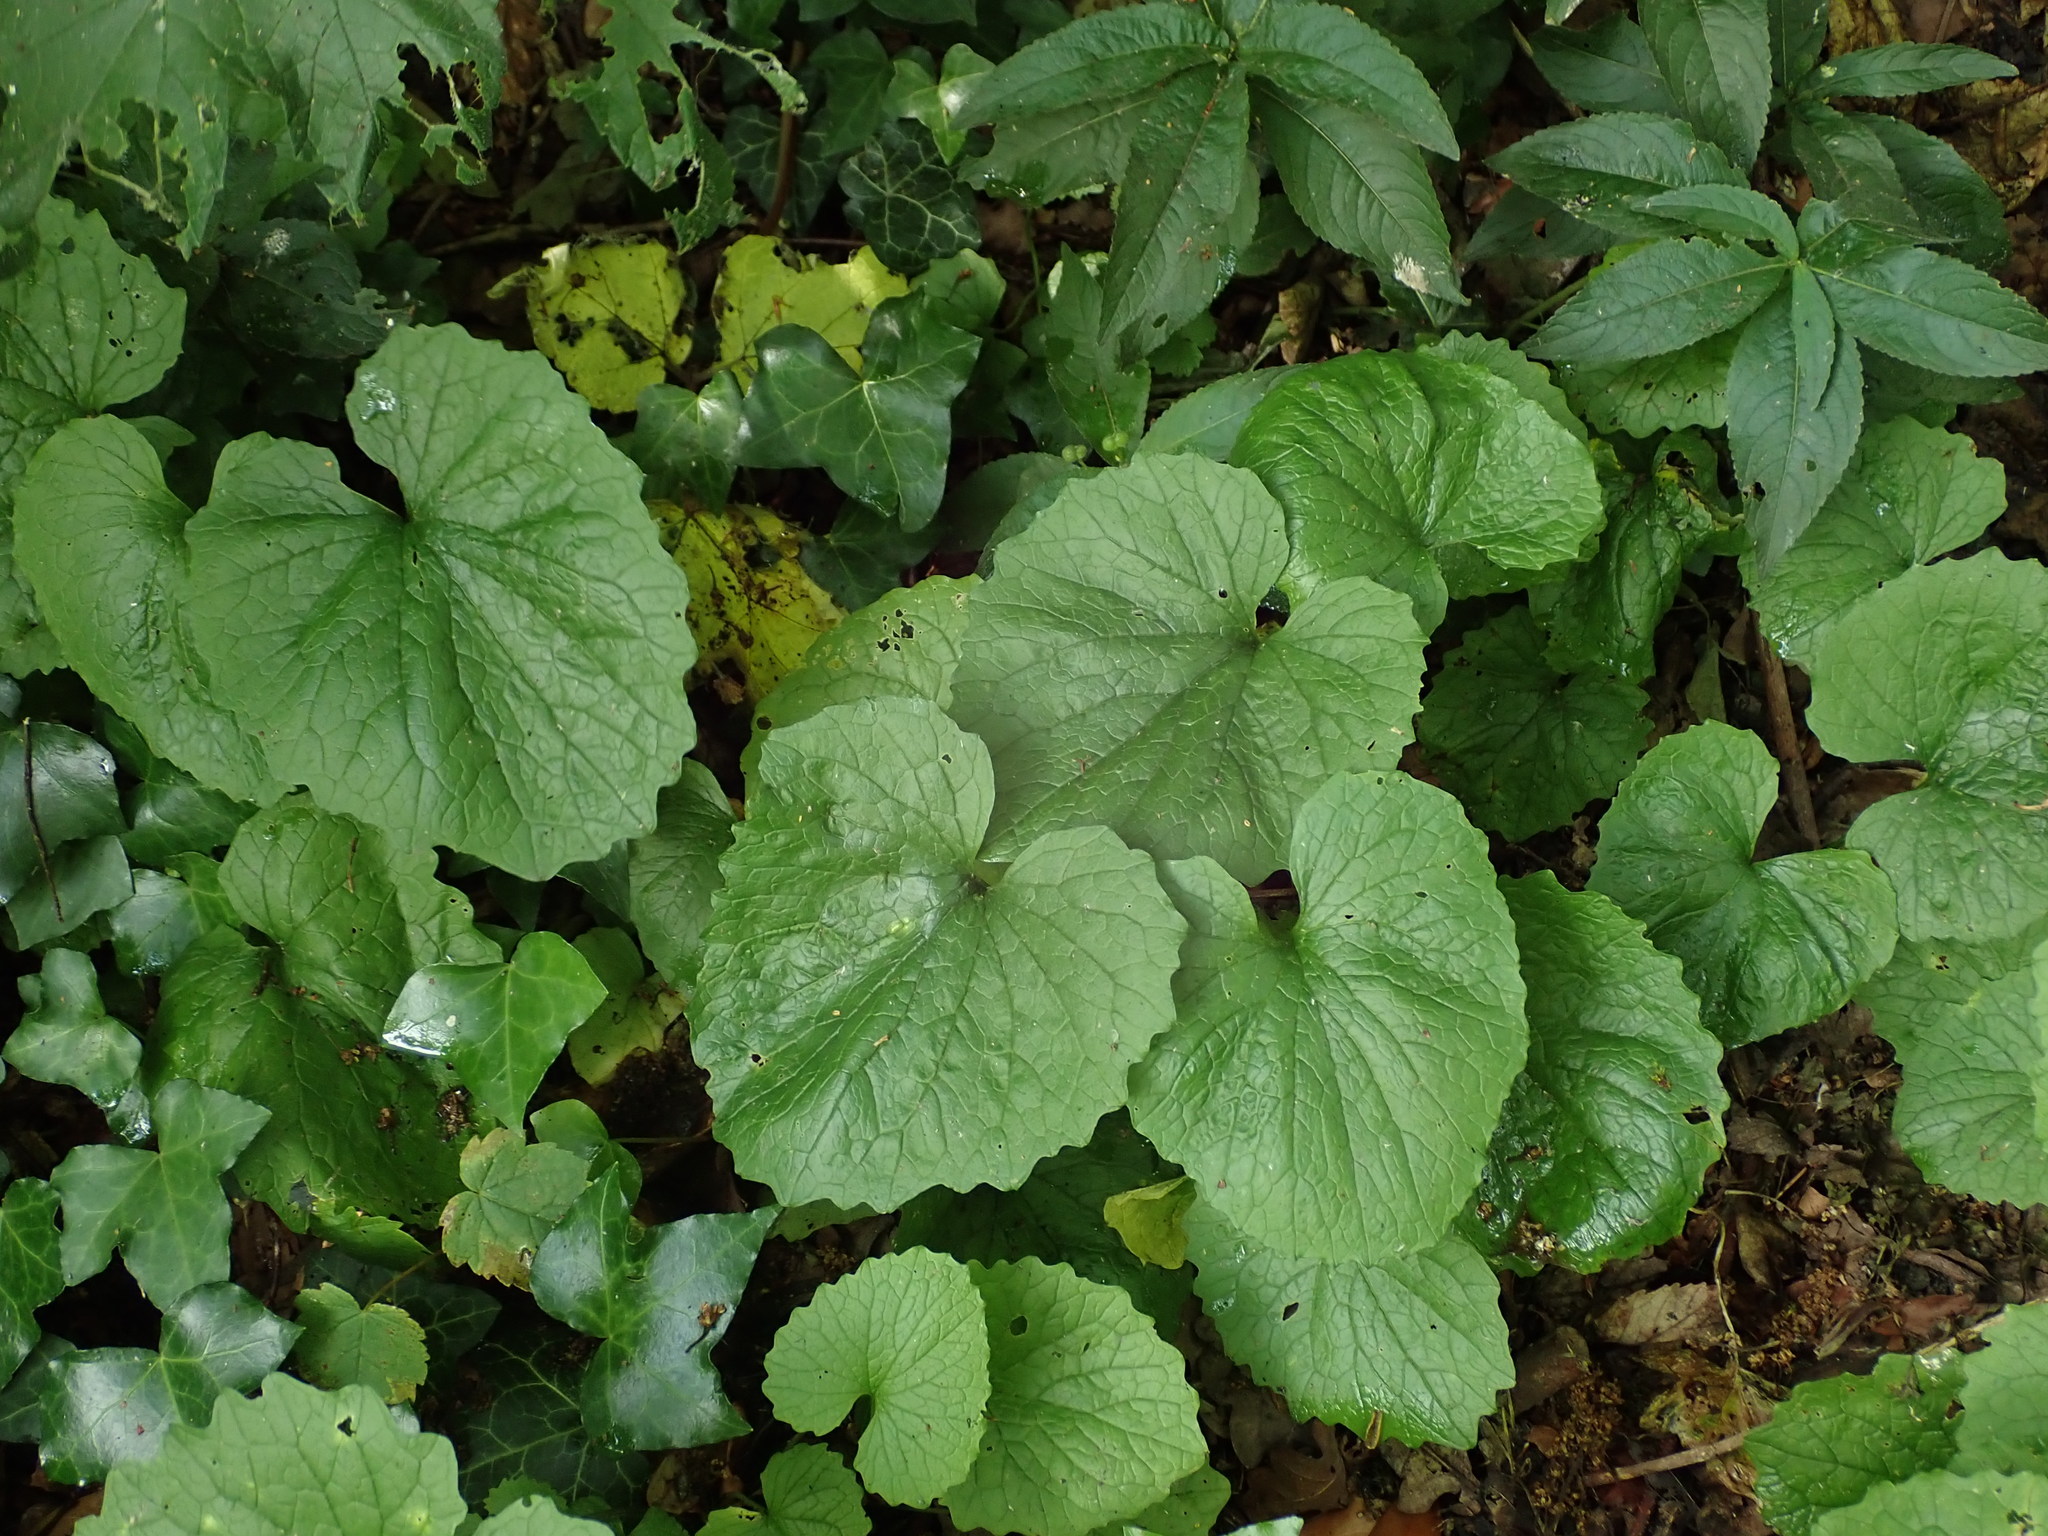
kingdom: Plantae
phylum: Tracheophyta
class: Magnoliopsida
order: Brassicales
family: Brassicaceae
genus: Alliaria
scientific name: Alliaria petiolata
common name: Garlic mustard
